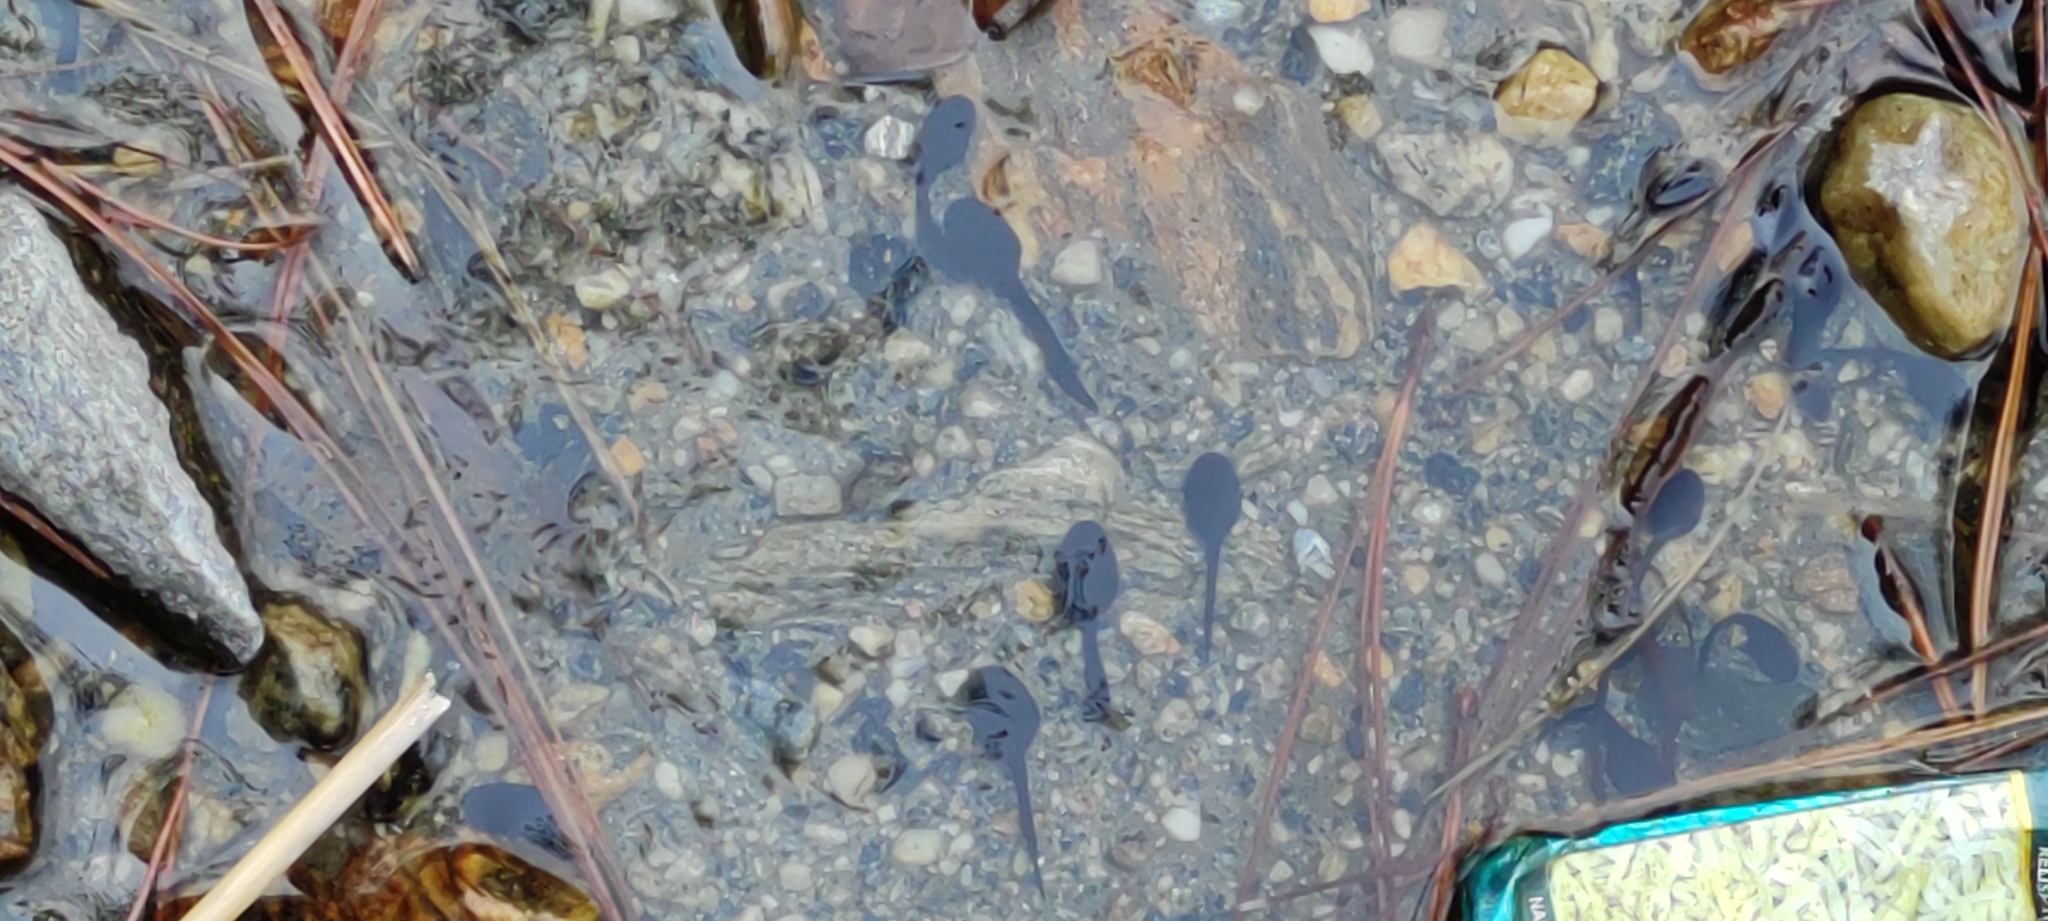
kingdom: Animalia
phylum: Chordata
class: Amphibia
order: Anura
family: Bufonidae
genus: Duttaphrynus
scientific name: Duttaphrynus himalayanus
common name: Günther's high altitude toad
